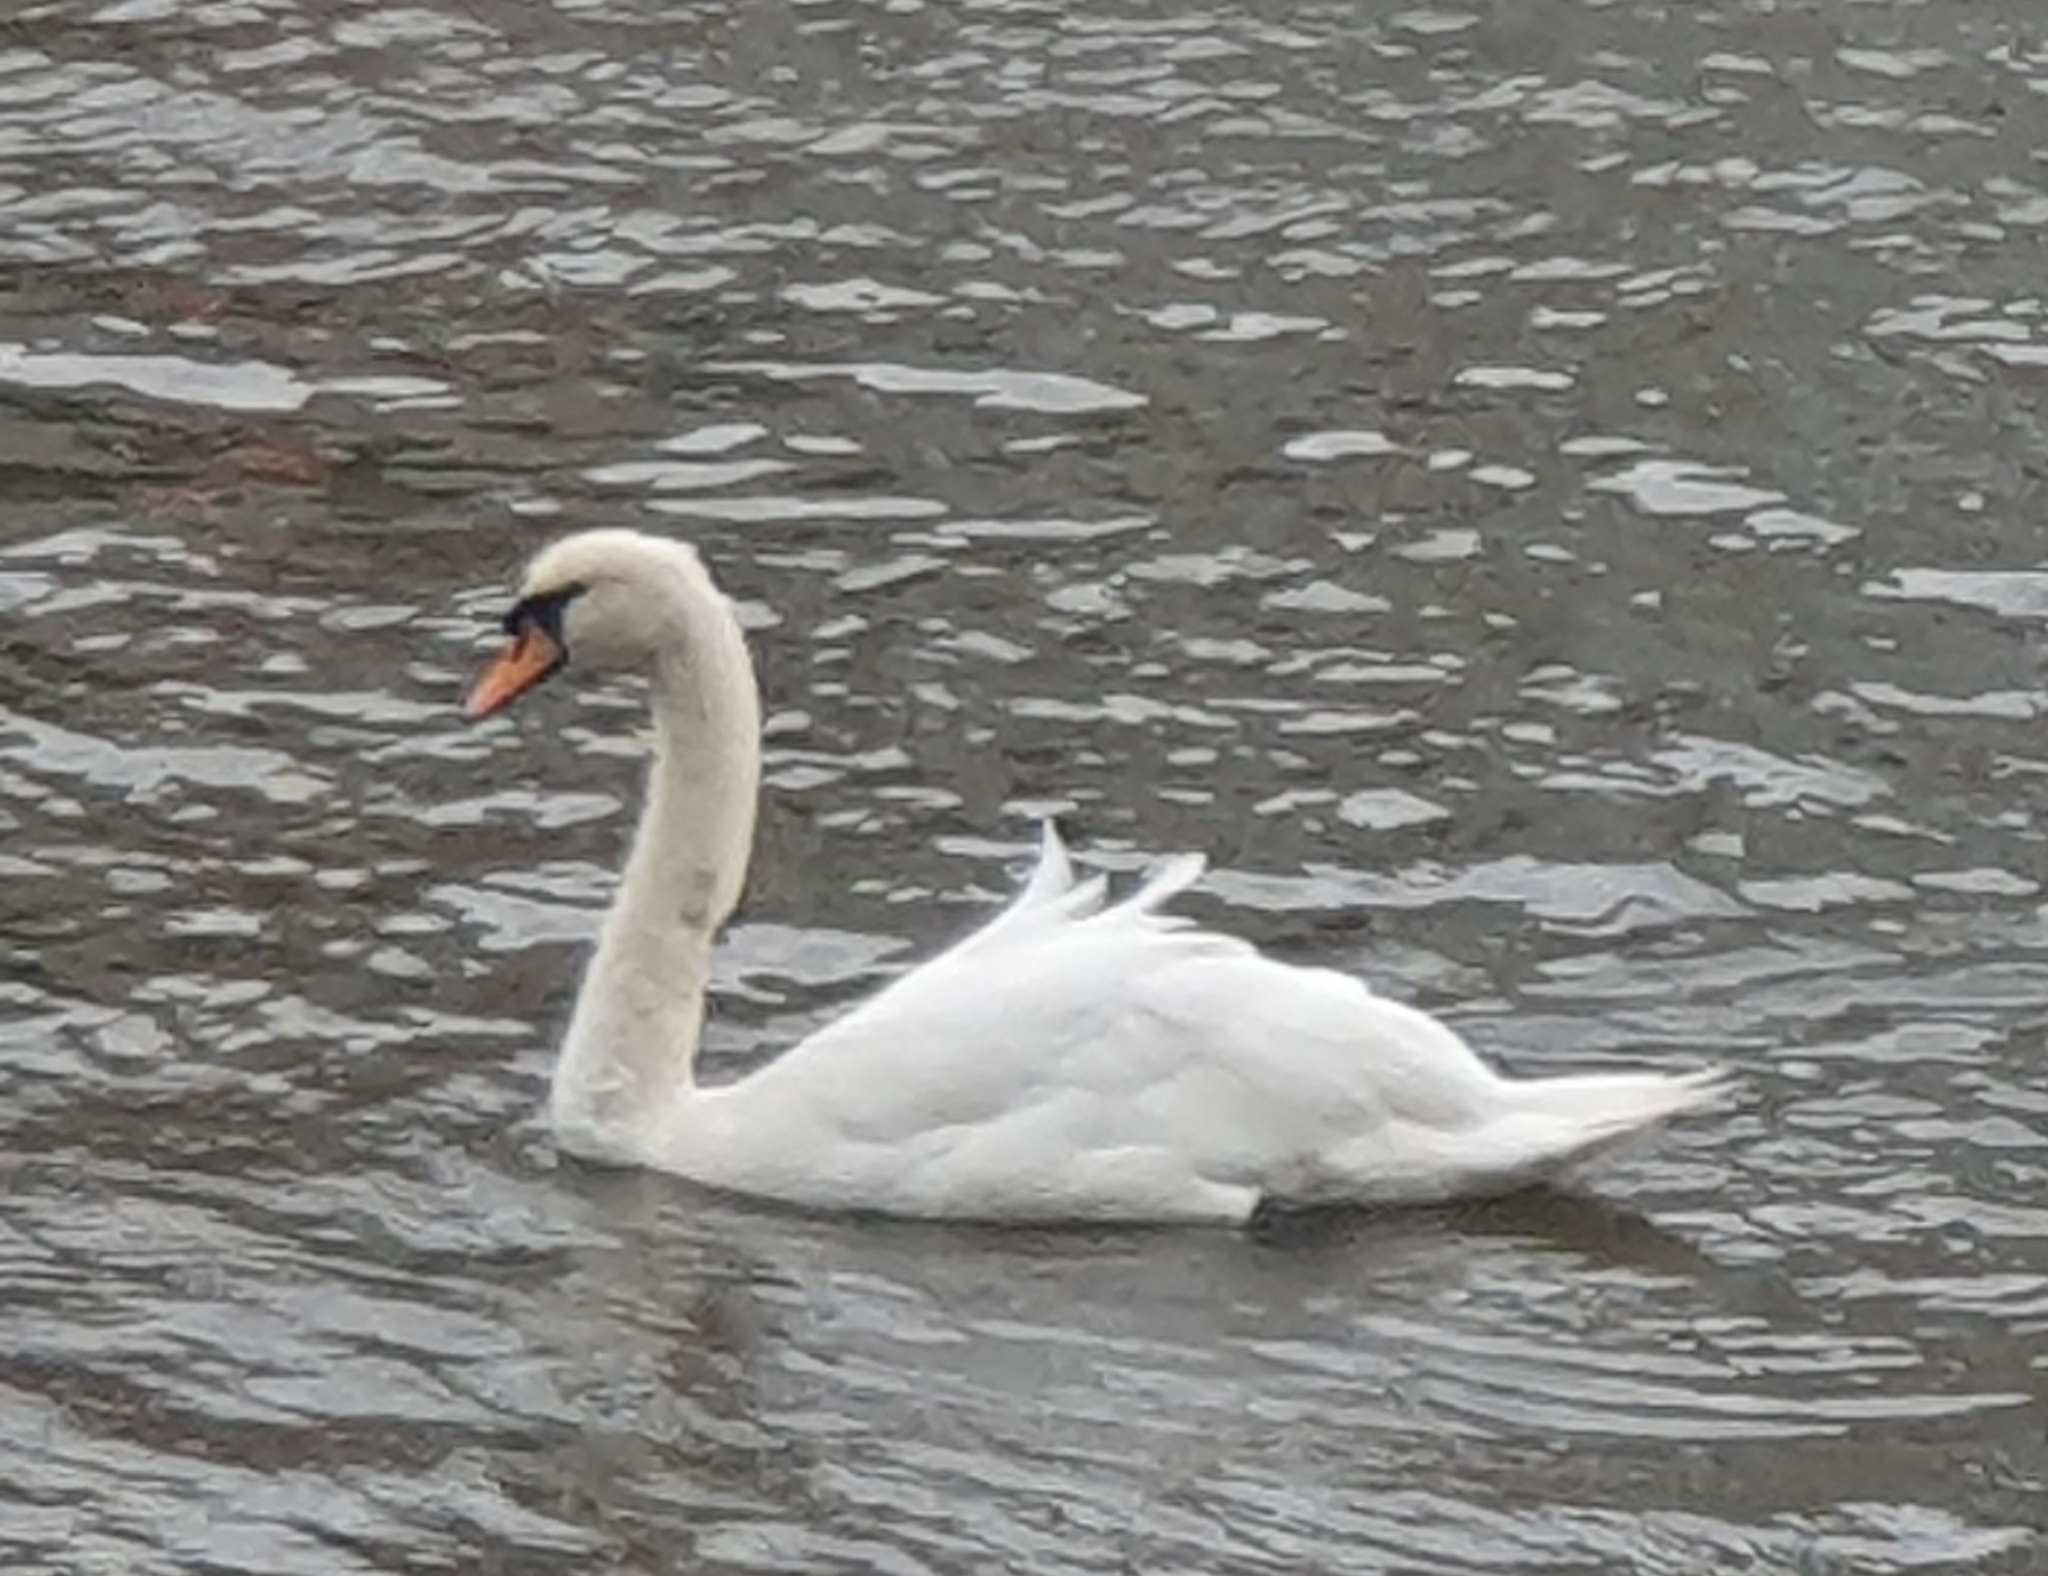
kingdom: Animalia
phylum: Chordata
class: Aves
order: Anseriformes
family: Anatidae
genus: Cygnus
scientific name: Cygnus olor
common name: Mute swan
